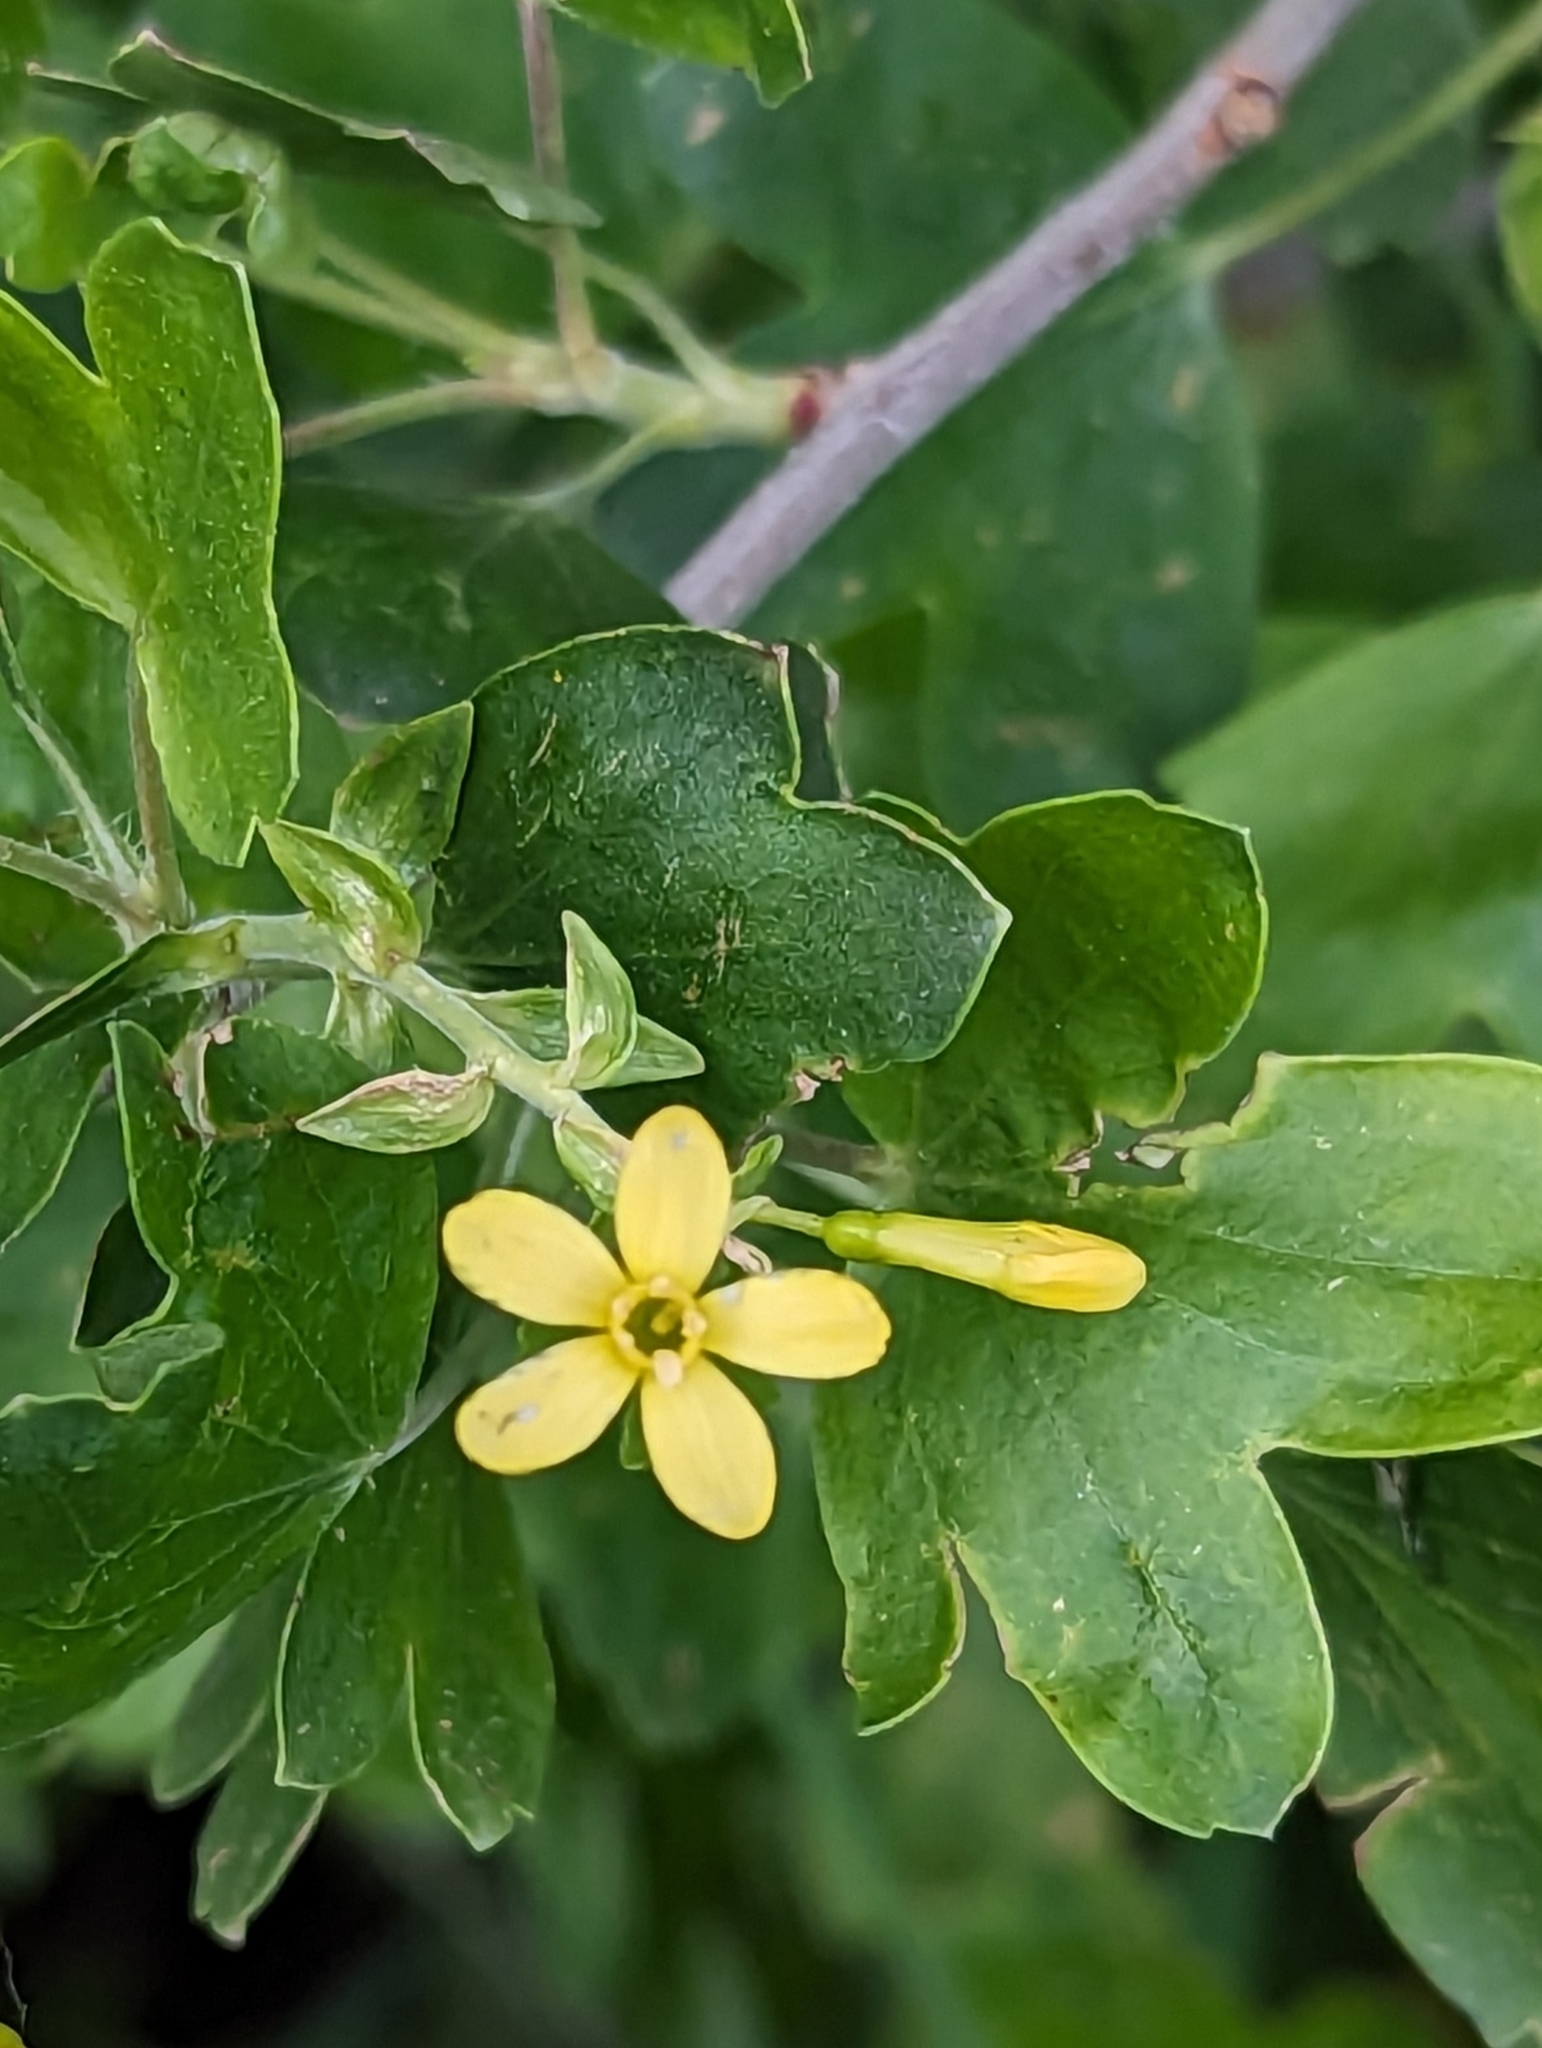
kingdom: Plantae
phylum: Tracheophyta
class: Magnoliopsida
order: Saxifragales
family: Grossulariaceae
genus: Ribes
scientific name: Ribes aureum
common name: Golden currant
